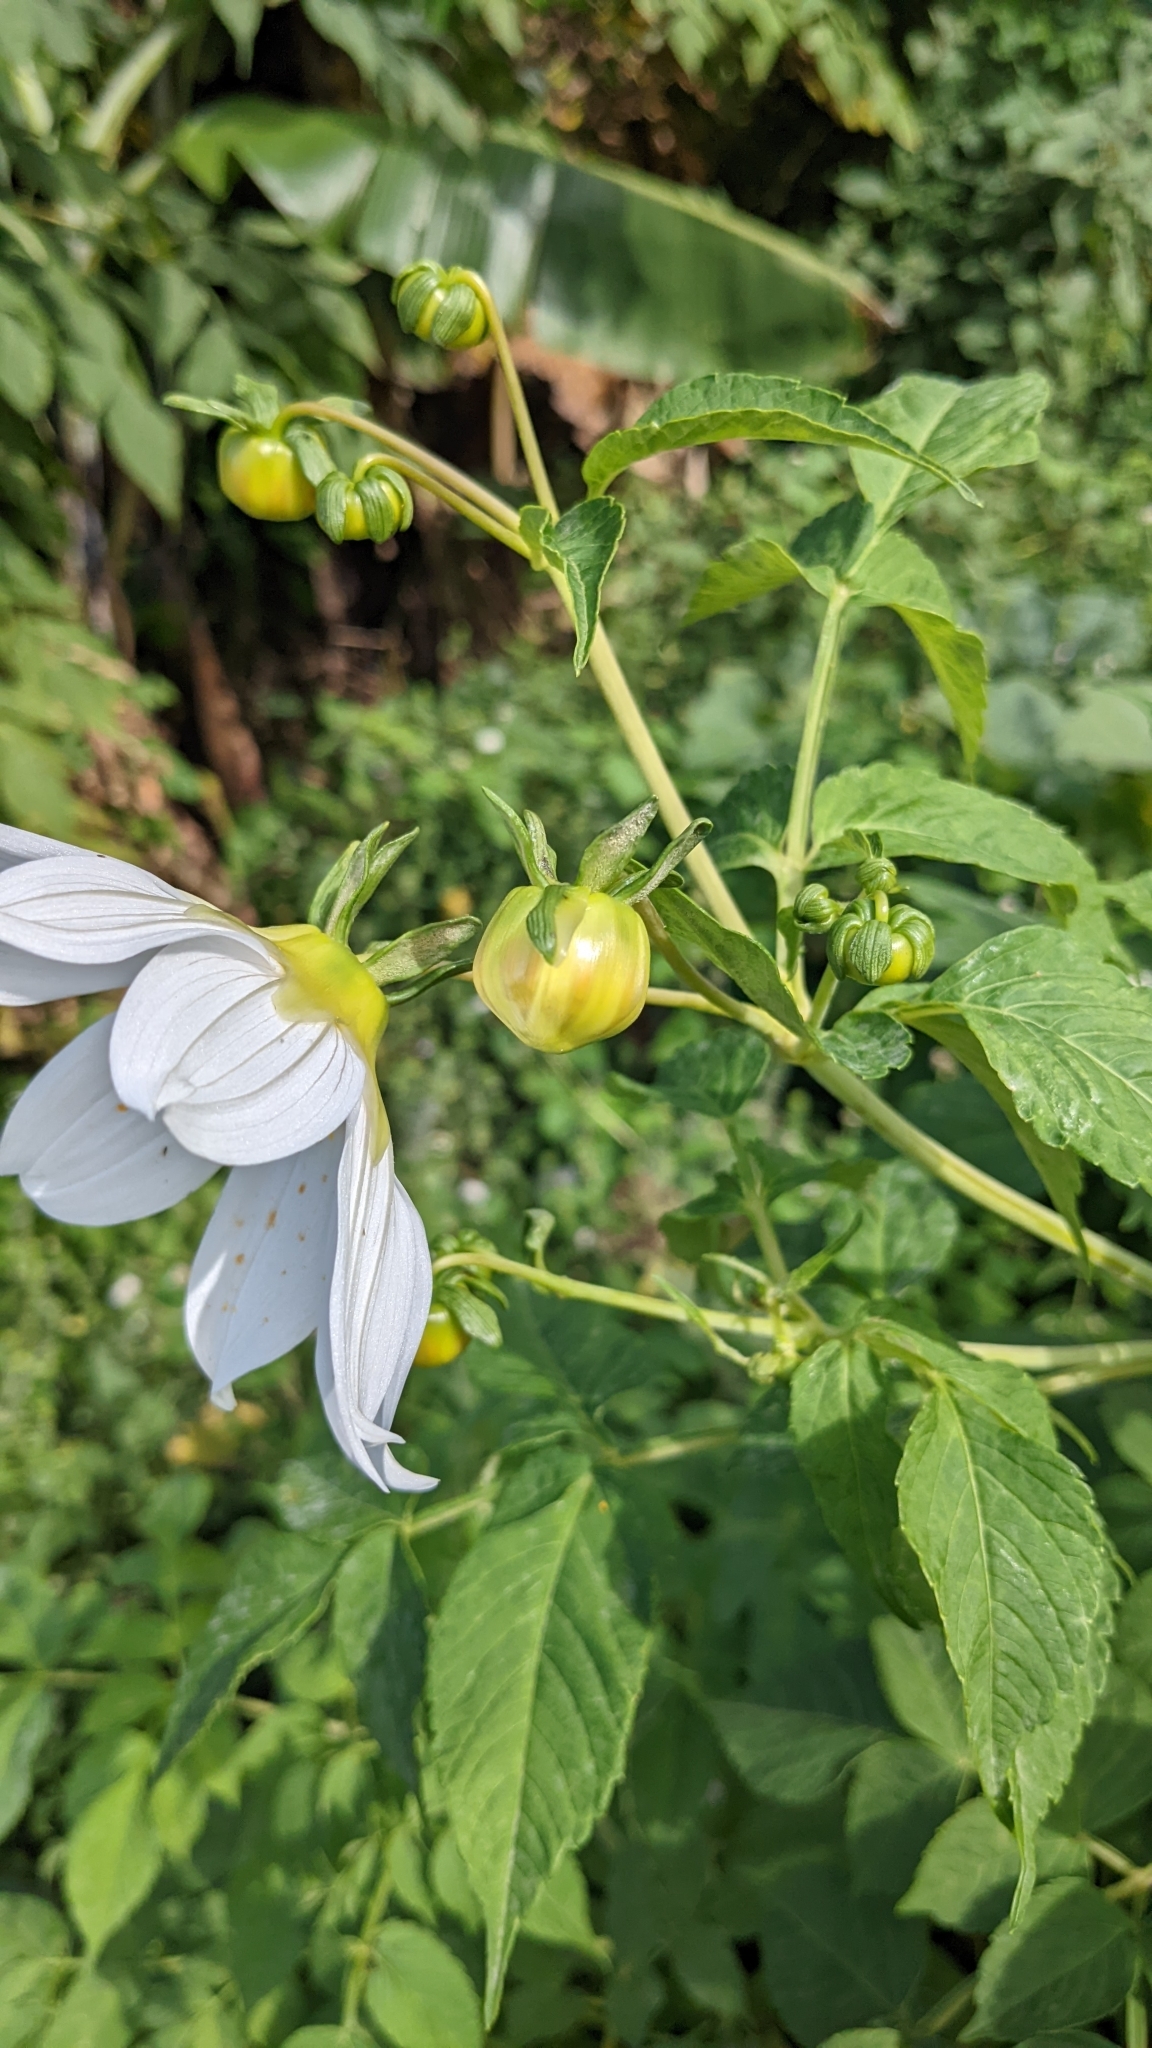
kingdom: Plantae
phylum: Tracheophyta
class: Magnoliopsida
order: Asterales
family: Asteraceae
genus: Dahlia
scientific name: Dahlia imperialis
